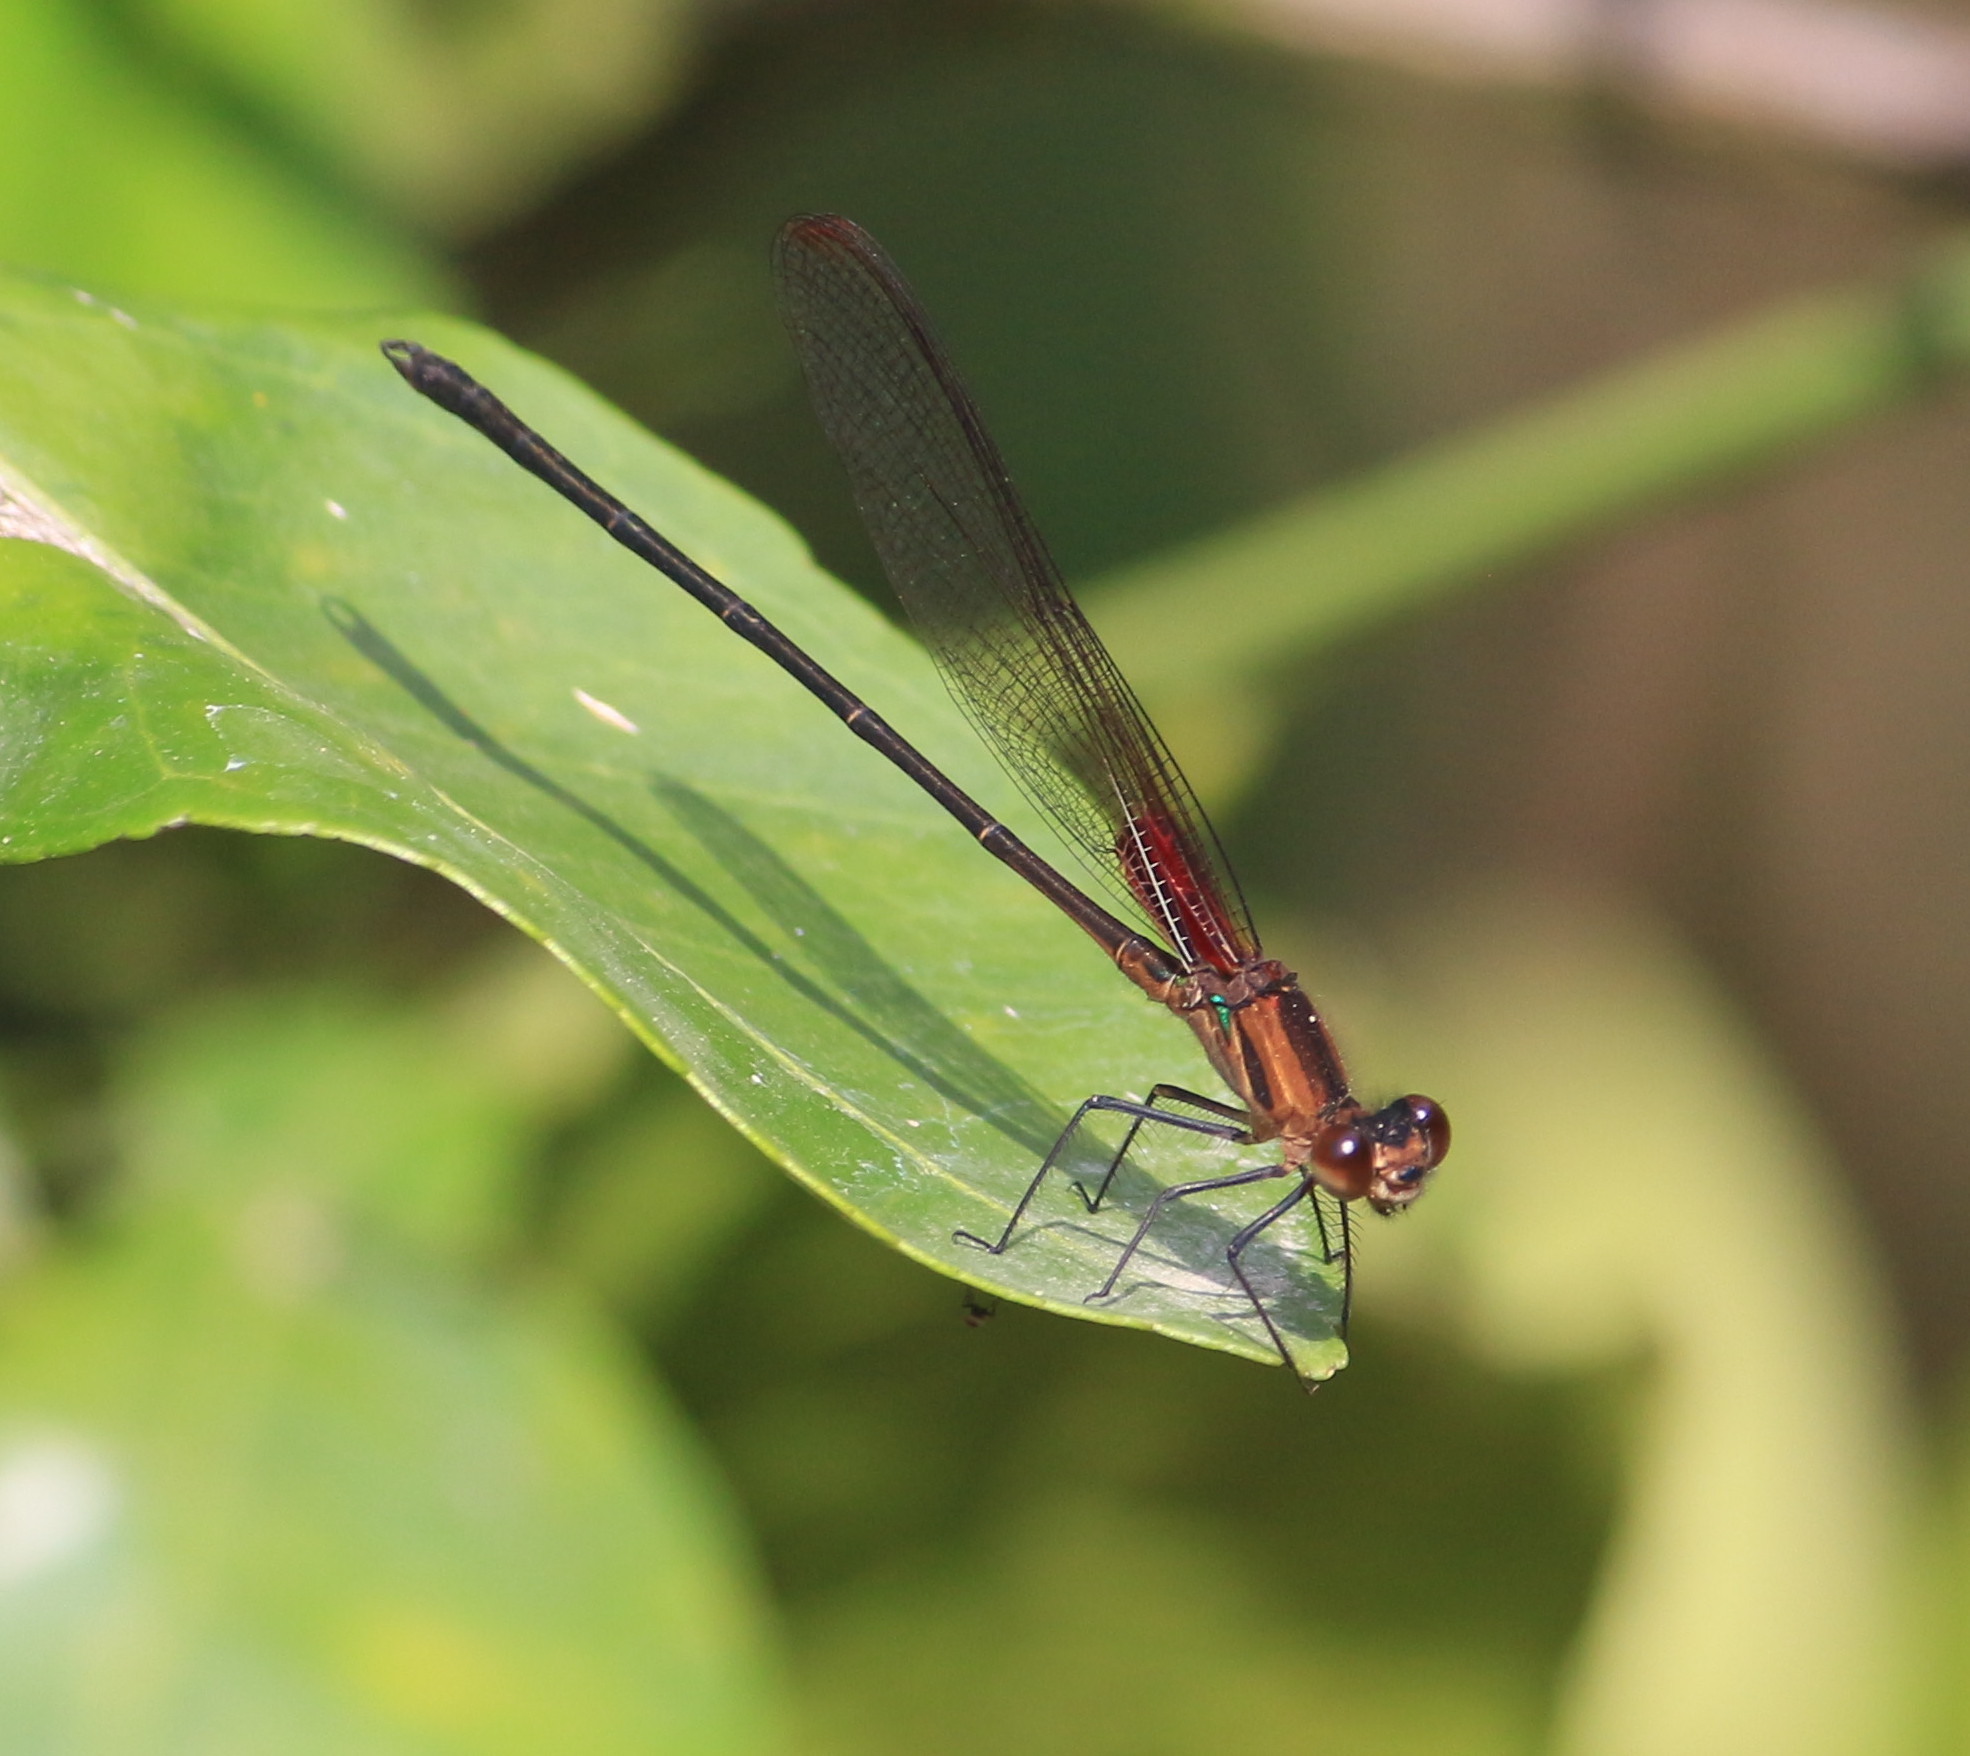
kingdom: Animalia
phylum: Arthropoda
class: Insecta
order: Odonata
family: Calopterygidae
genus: Hetaerina
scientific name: Hetaerina cruentata
